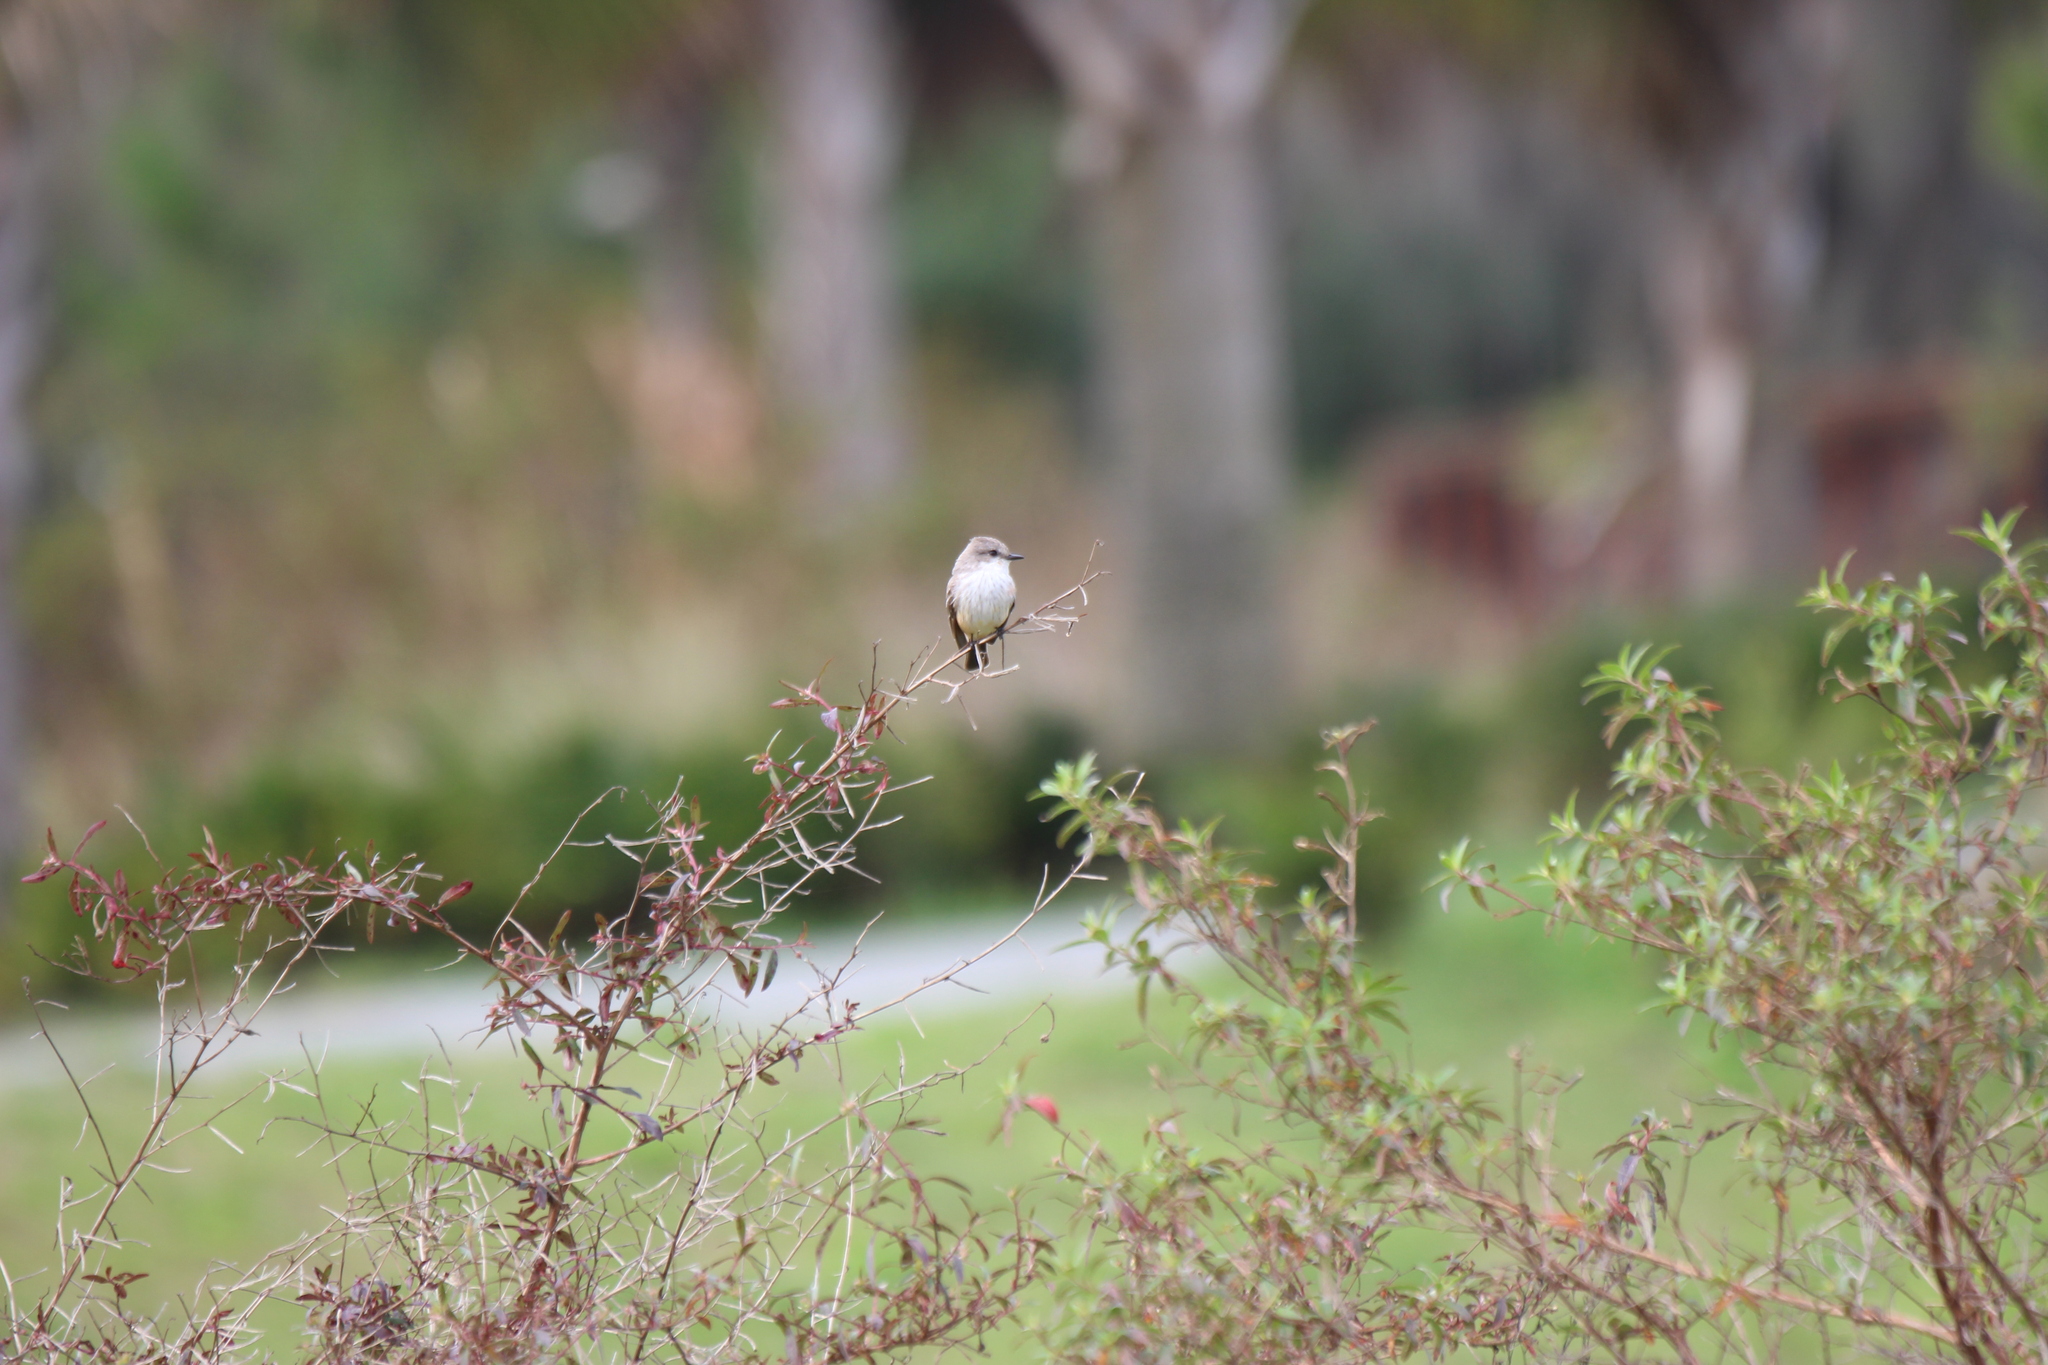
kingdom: Animalia
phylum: Chordata
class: Aves
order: Passeriformes
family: Tyrannidae
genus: Pyrocephalus
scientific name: Pyrocephalus rubinus
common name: Vermilion flycatcher
